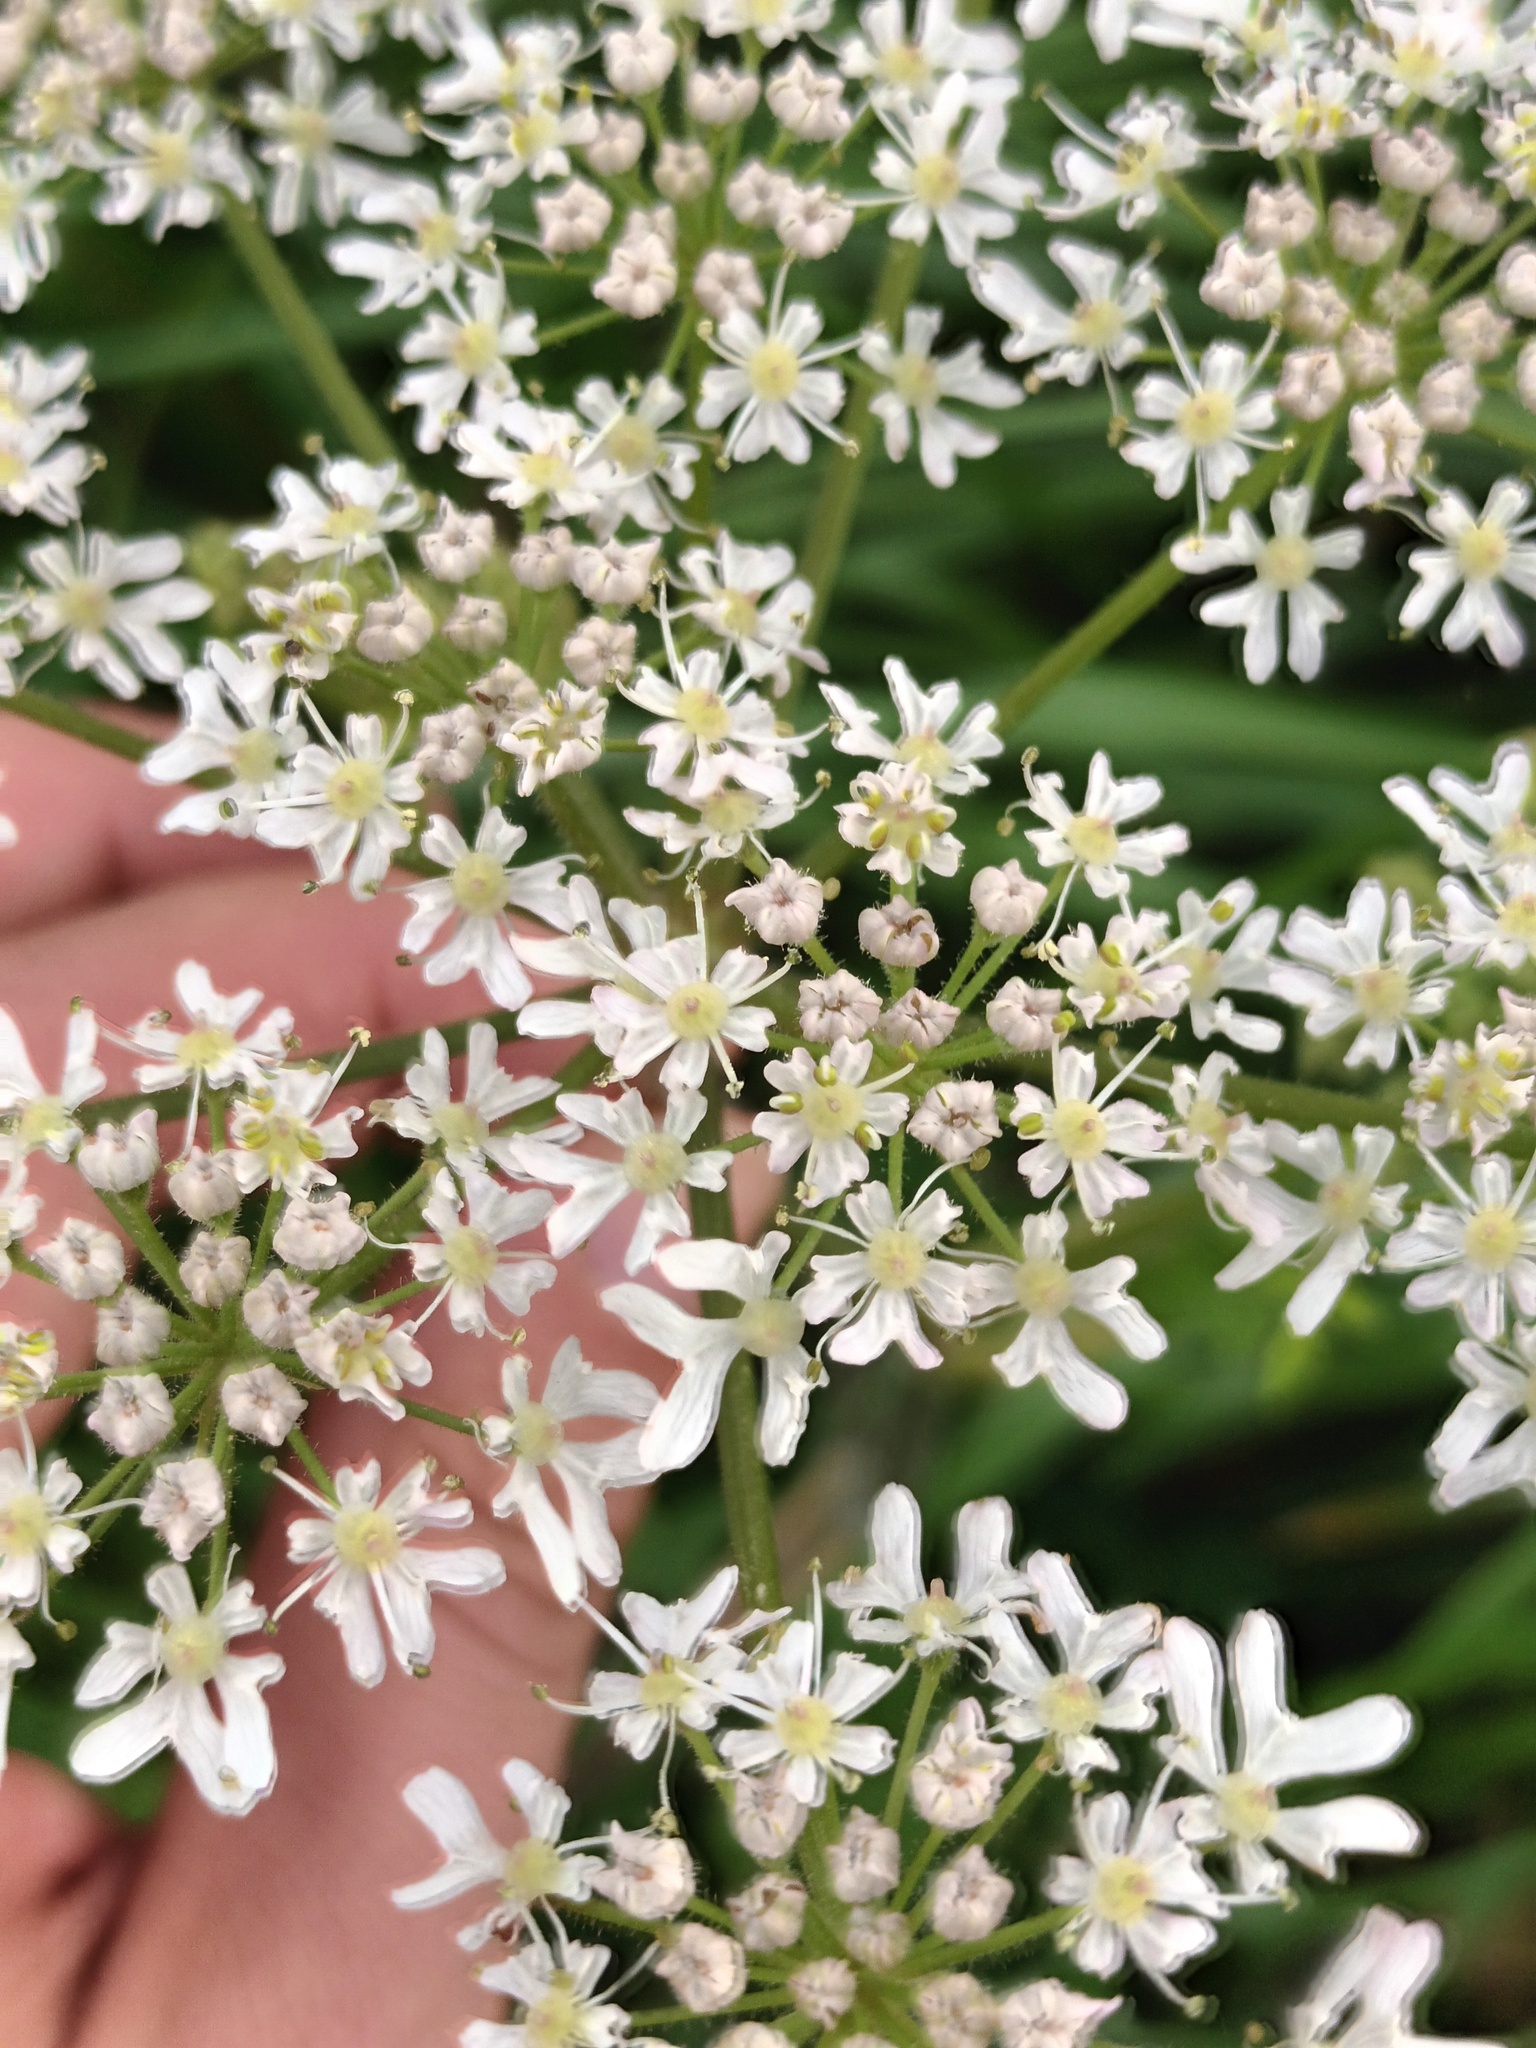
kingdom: Plantae
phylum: Tracheophyta
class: Magnoliopsida
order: Apiales
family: Apiaceae
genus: Heracleum
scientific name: Heracleum sphondylium
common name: Hogweed
